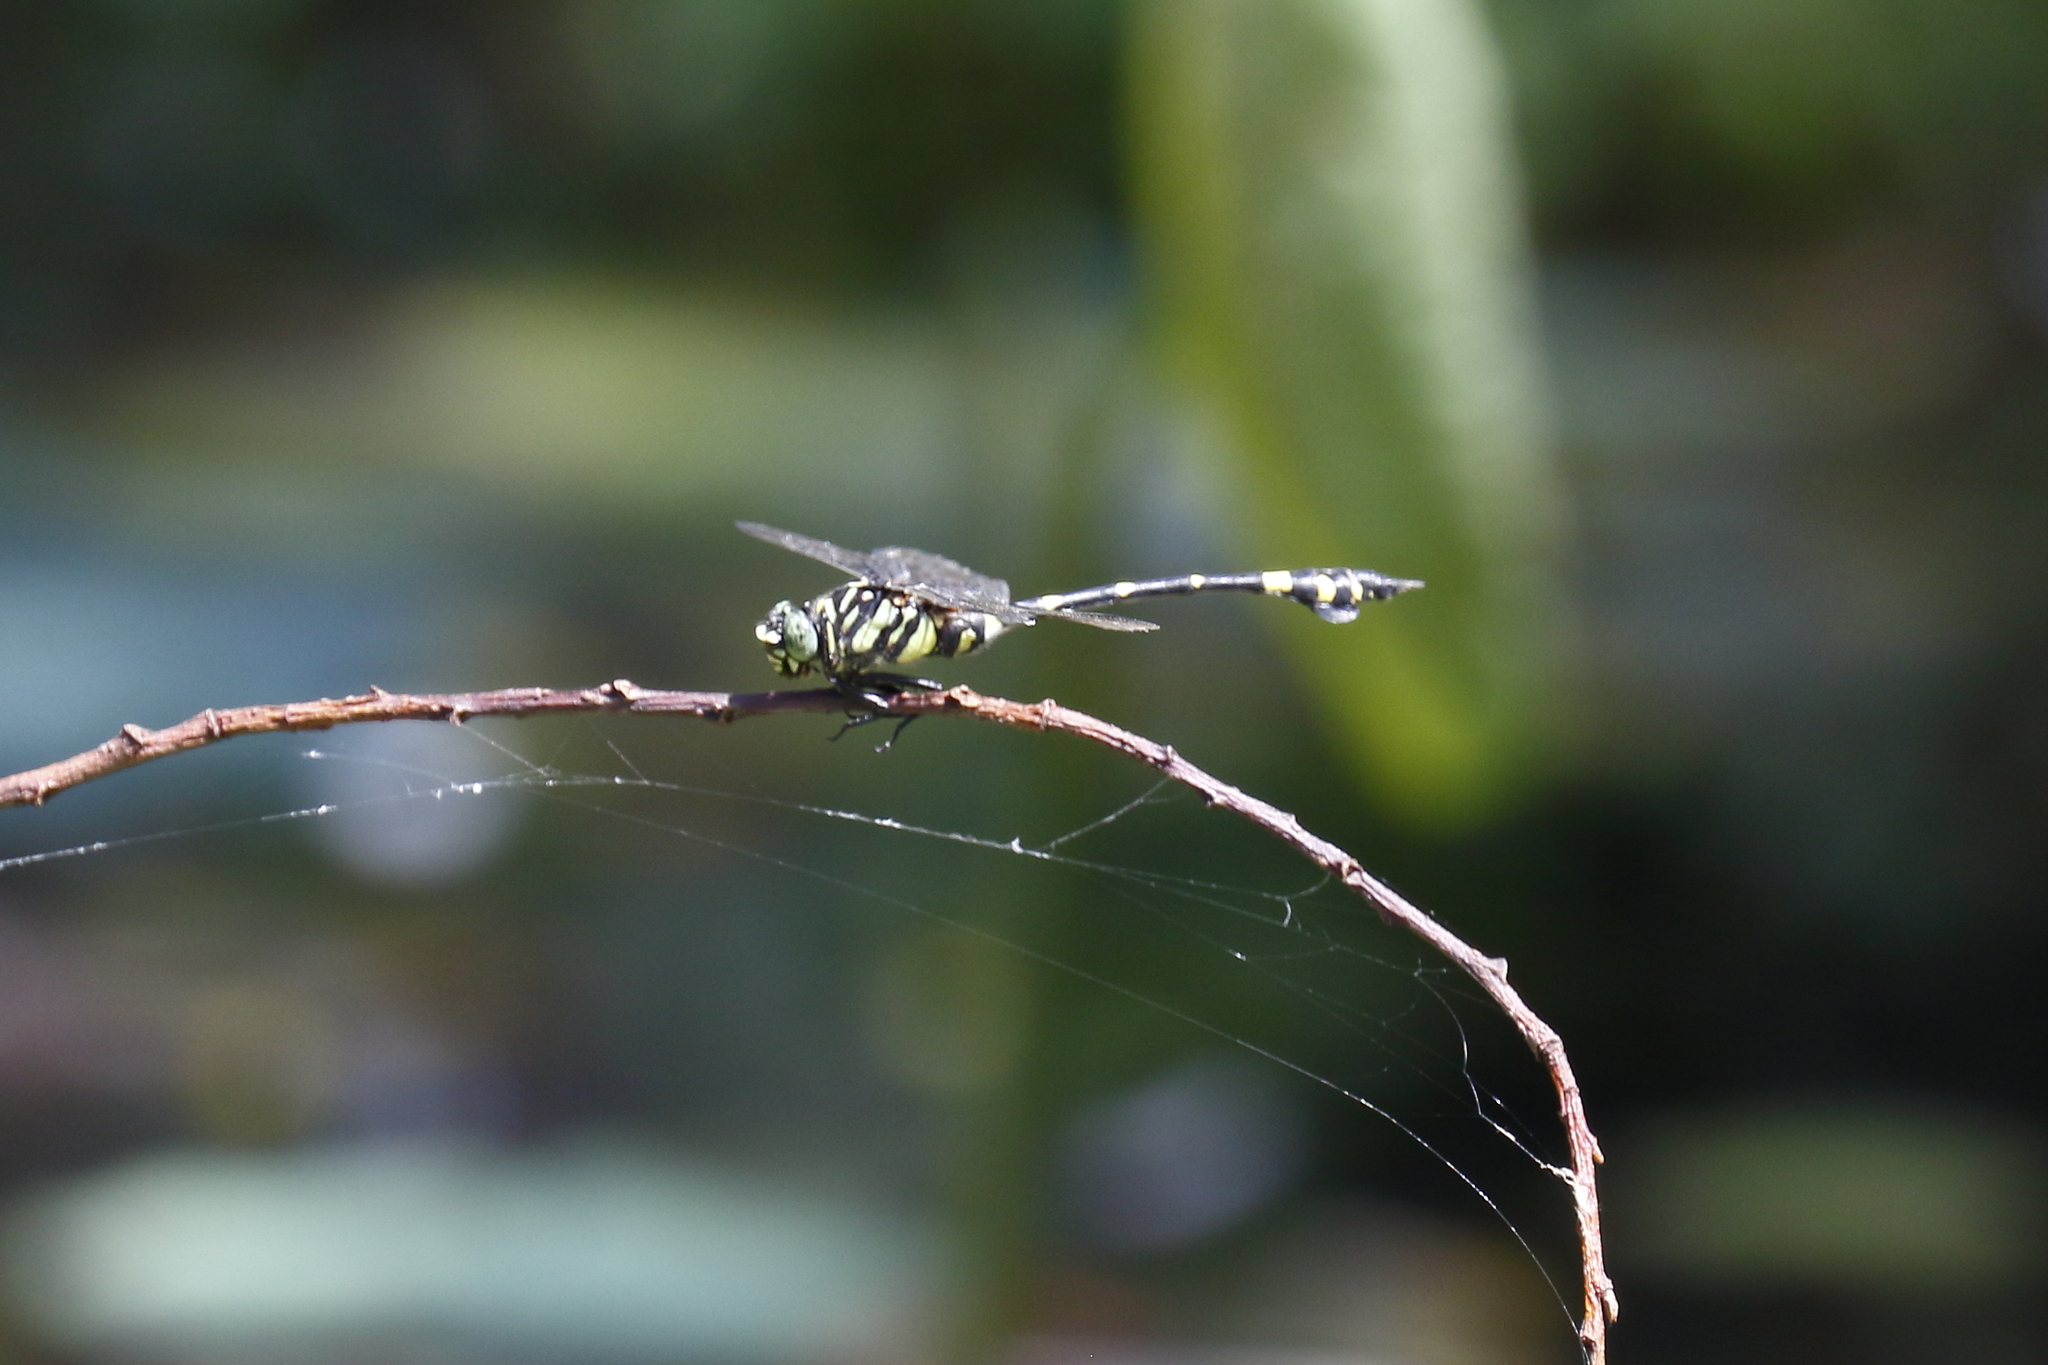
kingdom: Animalia
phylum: Arthropoda
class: Insecta
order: Odonata
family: Gomphidae
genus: Ictinogomphus
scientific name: Ictinogomphus rapax
